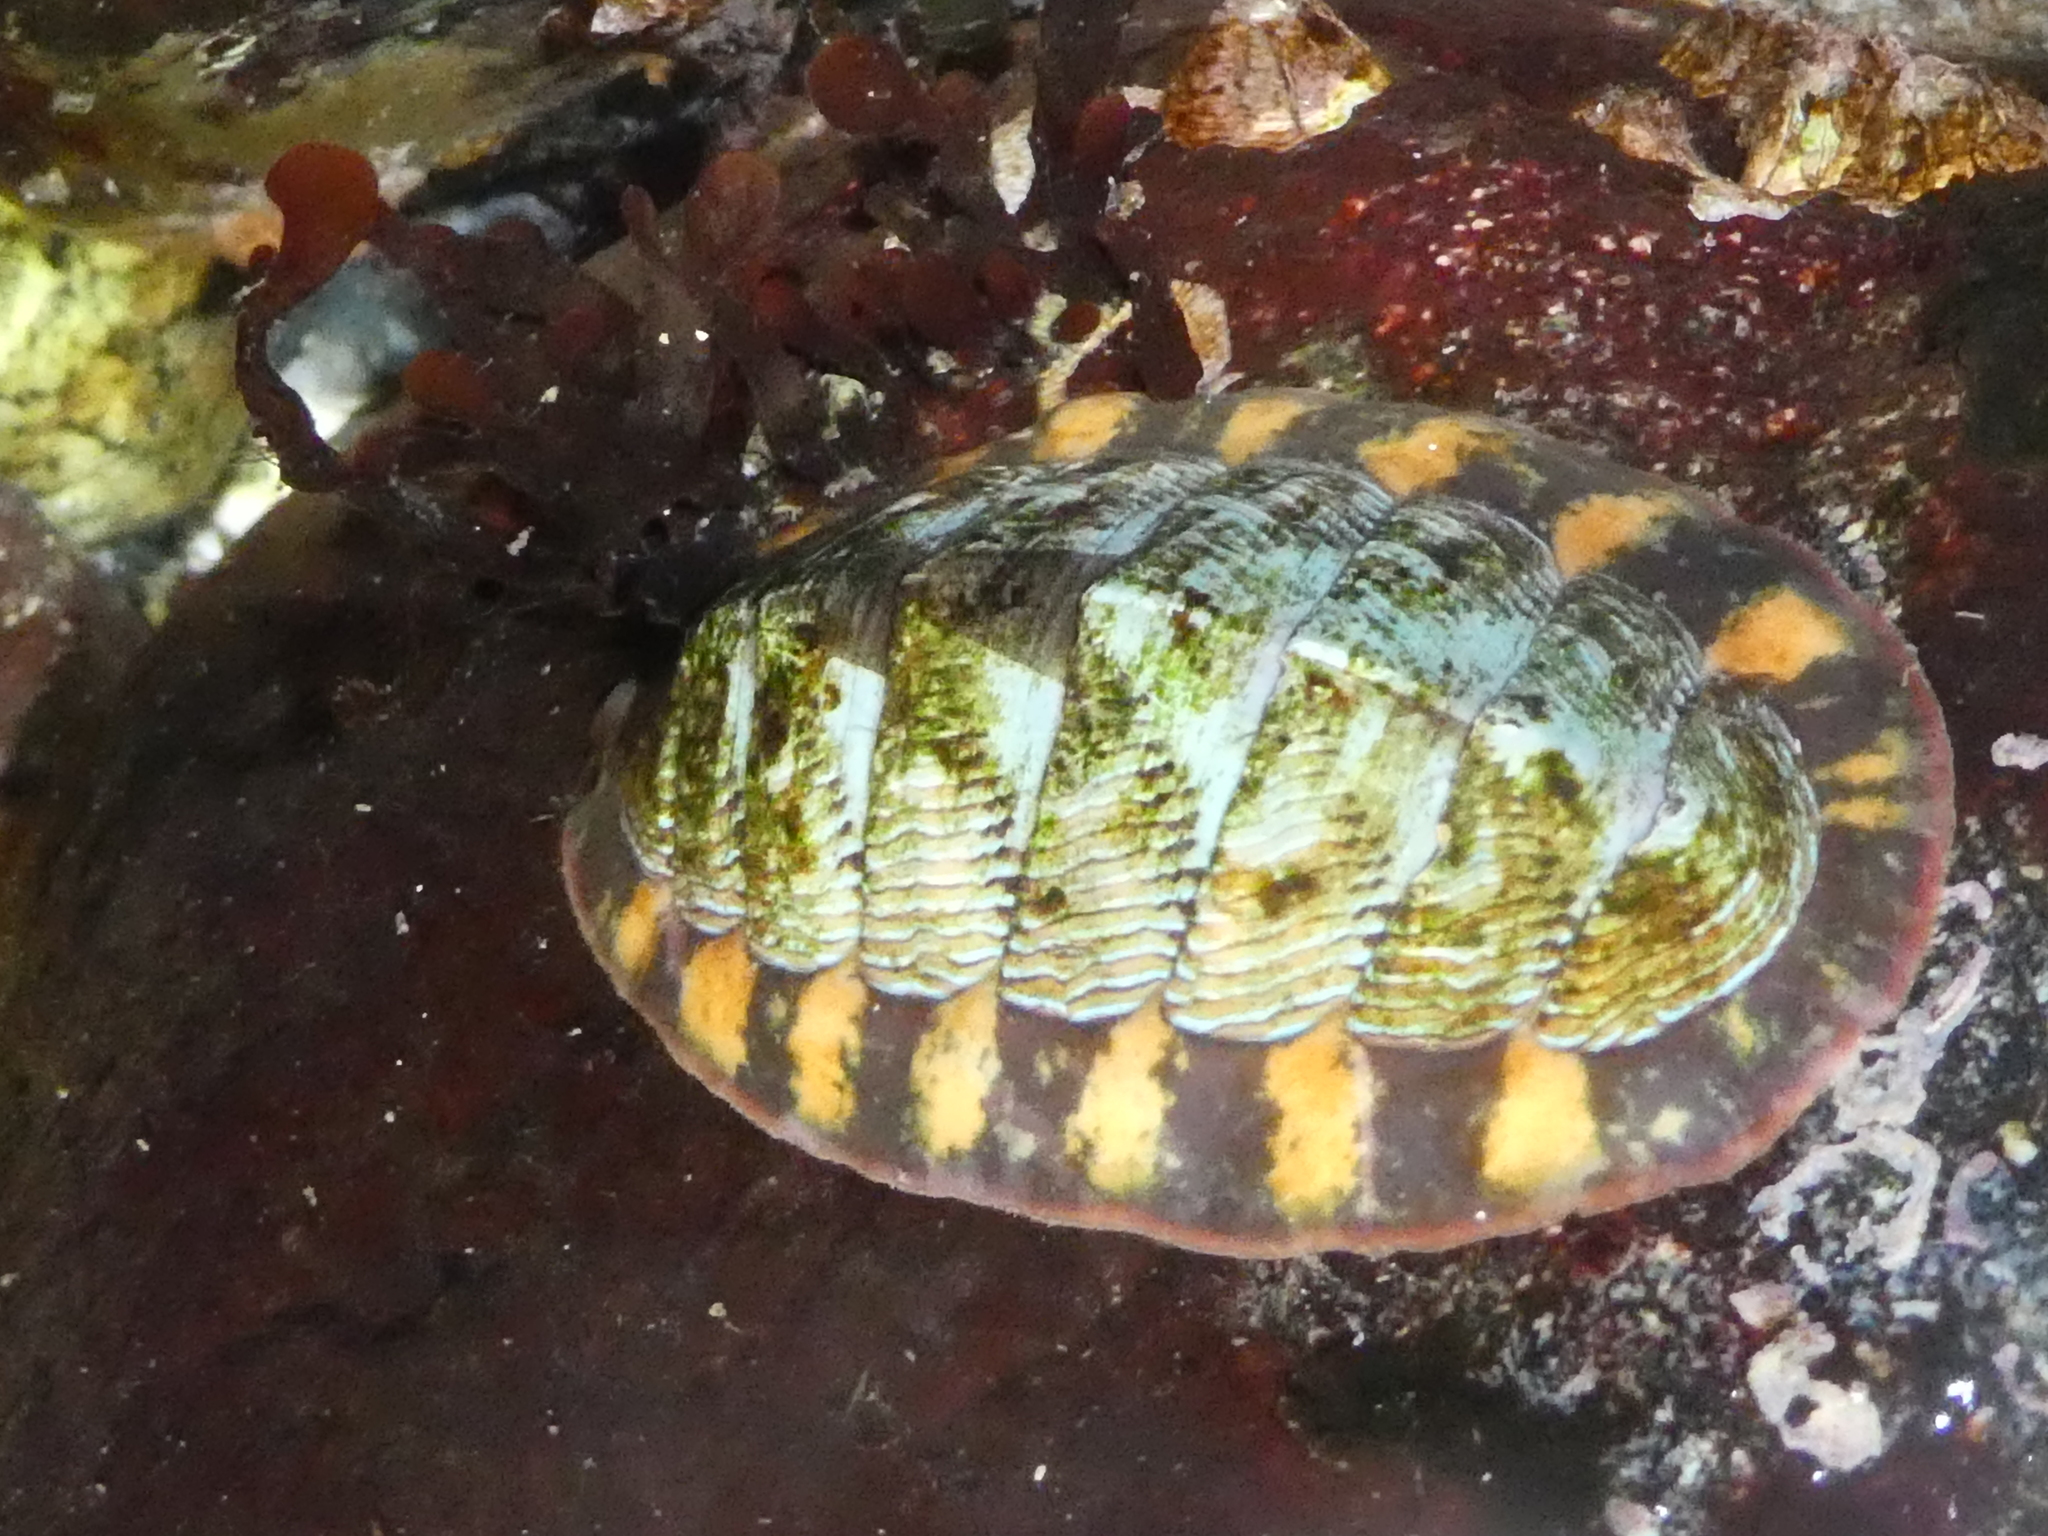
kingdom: Animalia
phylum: Mollusca
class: Polyplacophora
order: Chitonida
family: Tonicellidae
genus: Tonicella
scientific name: Tonicella lineata
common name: Lined chiton
